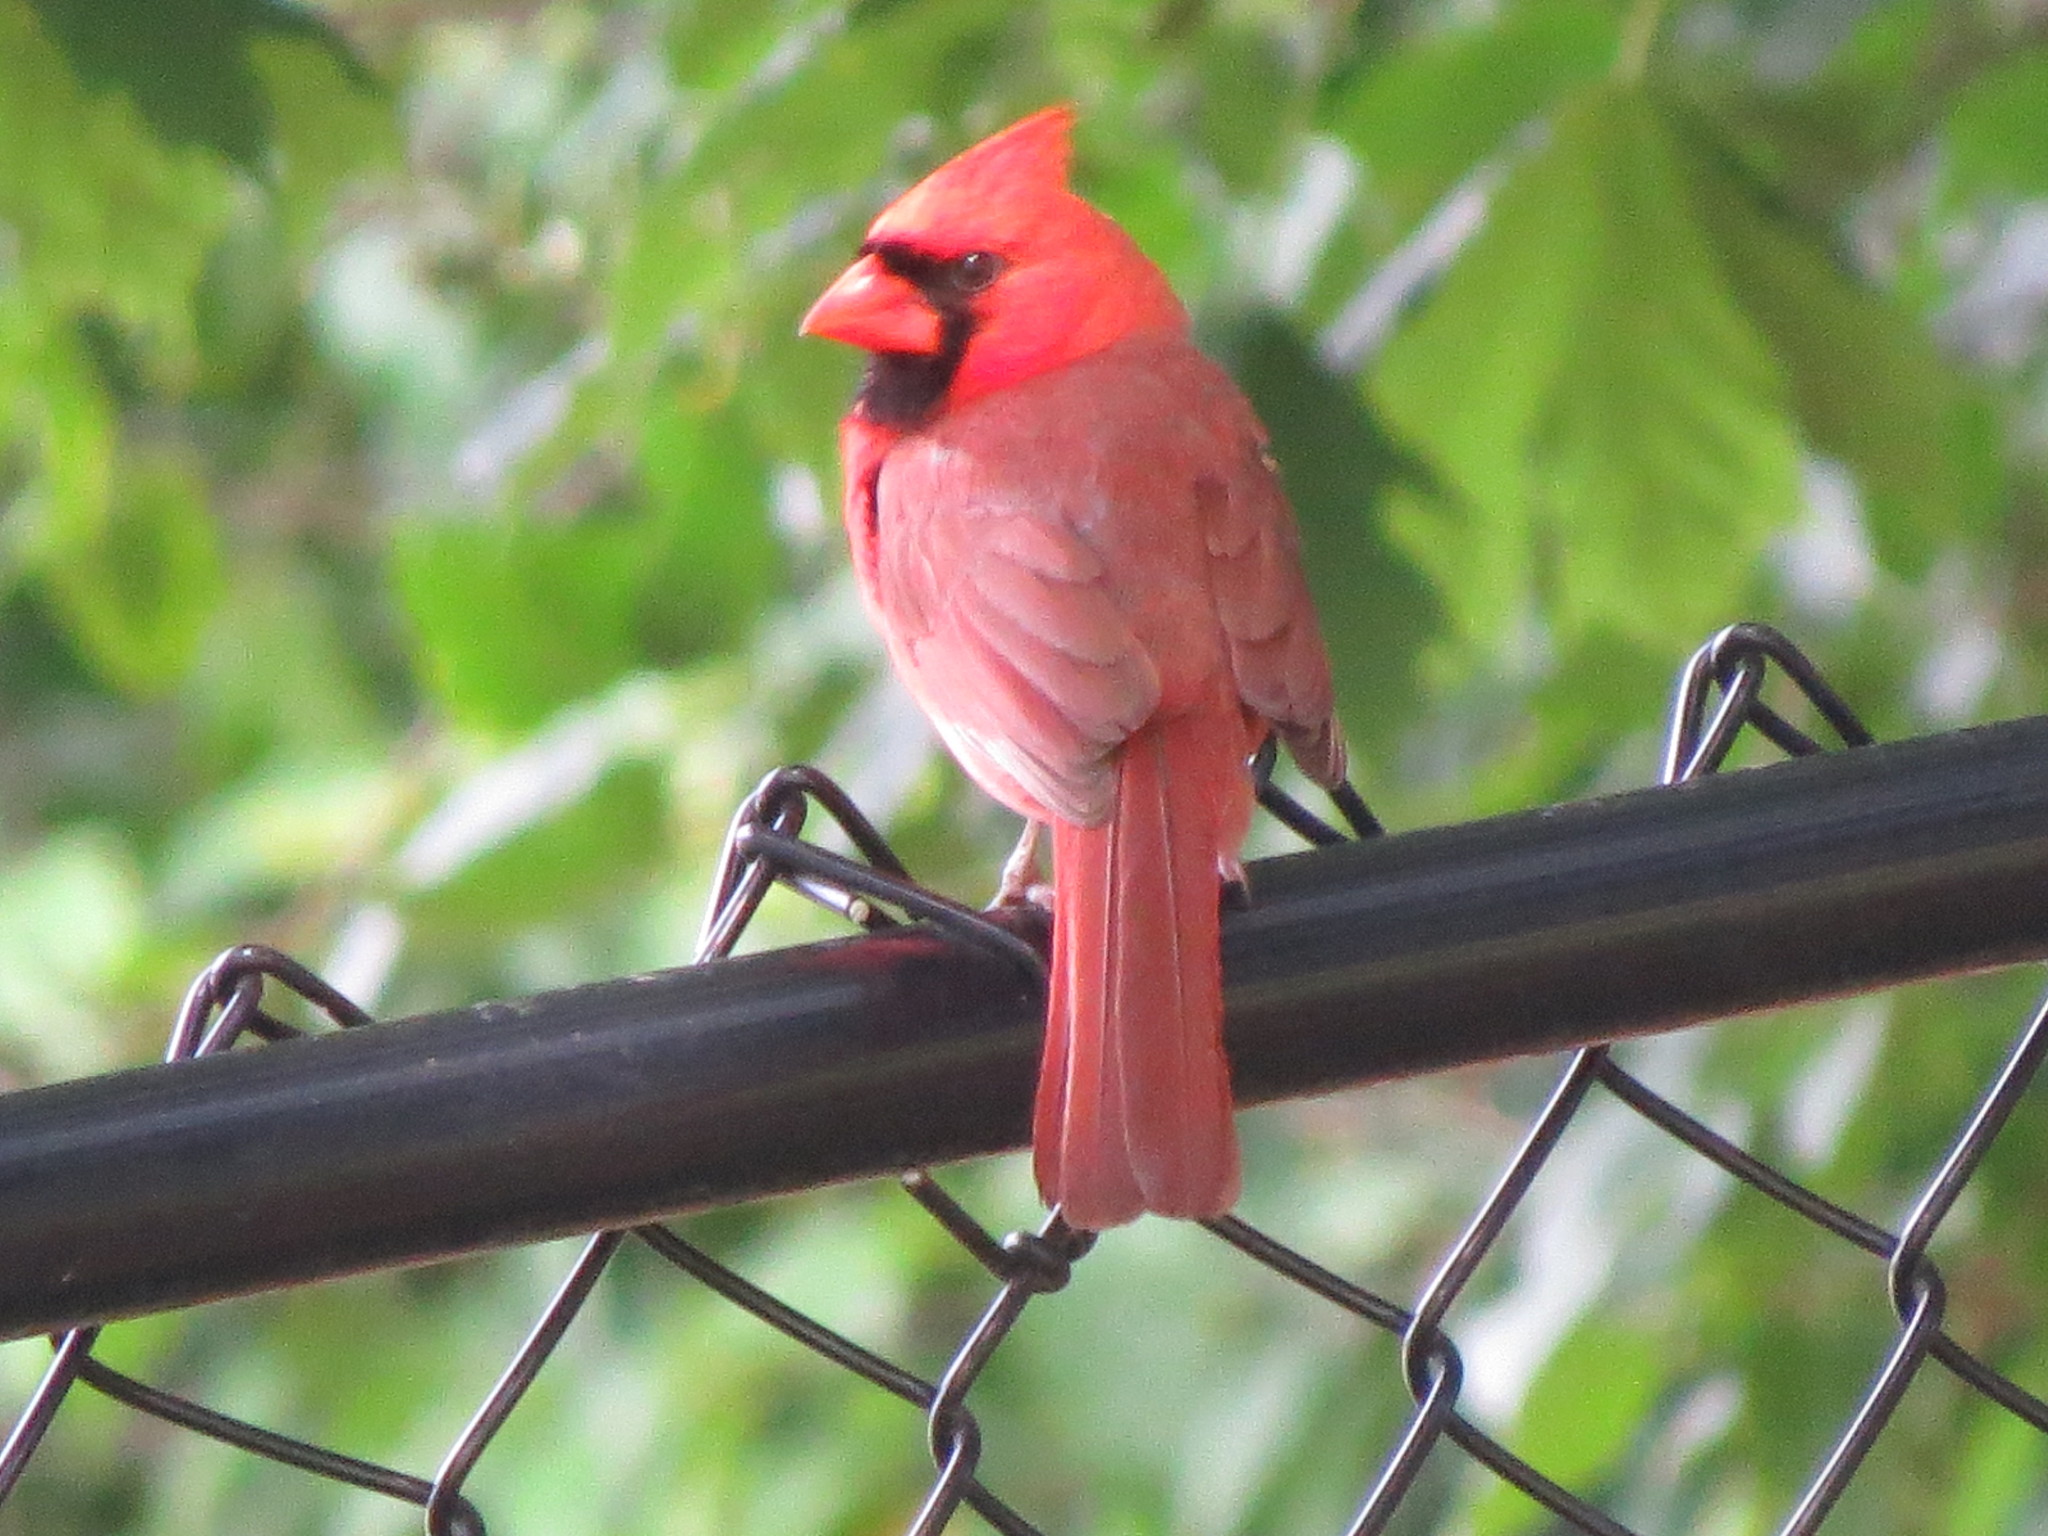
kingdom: Animalia
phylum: Chordata
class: Aves
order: Passeriformes
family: Cardinalidae
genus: Cardinalis
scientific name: Cardinalis cardinalis
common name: Northern cardinal
